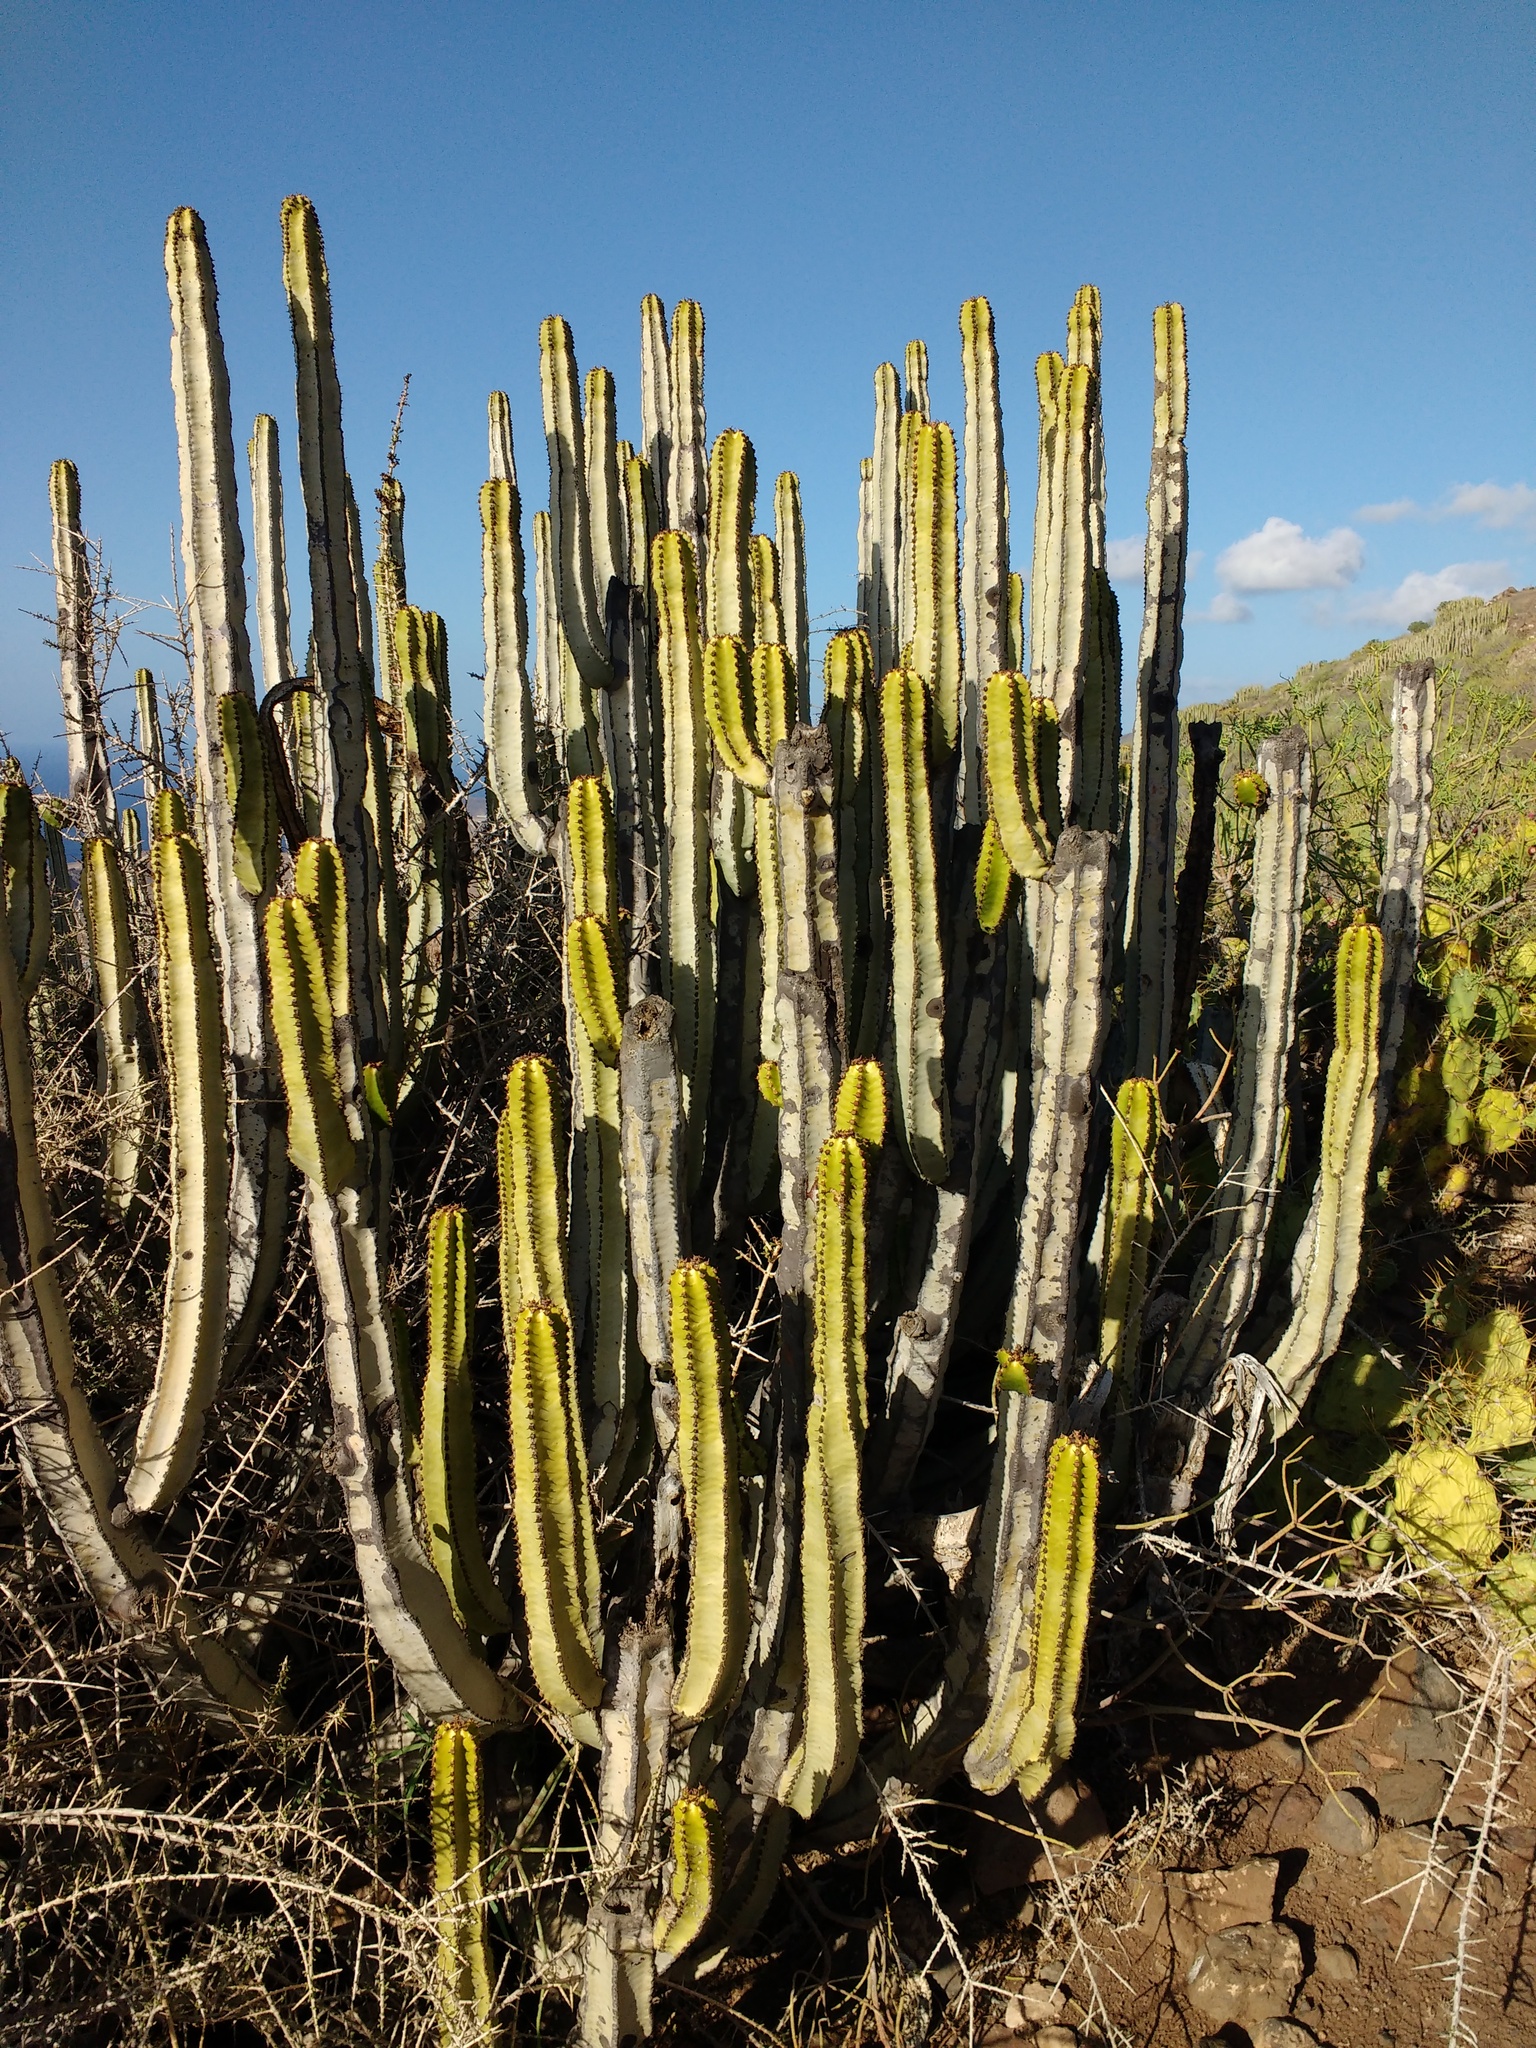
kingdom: Plantae
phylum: Tracheophyta
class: Magnoliopsida
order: Malpighiales
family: Euphorbiaceae
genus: Euphorbia
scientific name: Euphorbia canariensis
